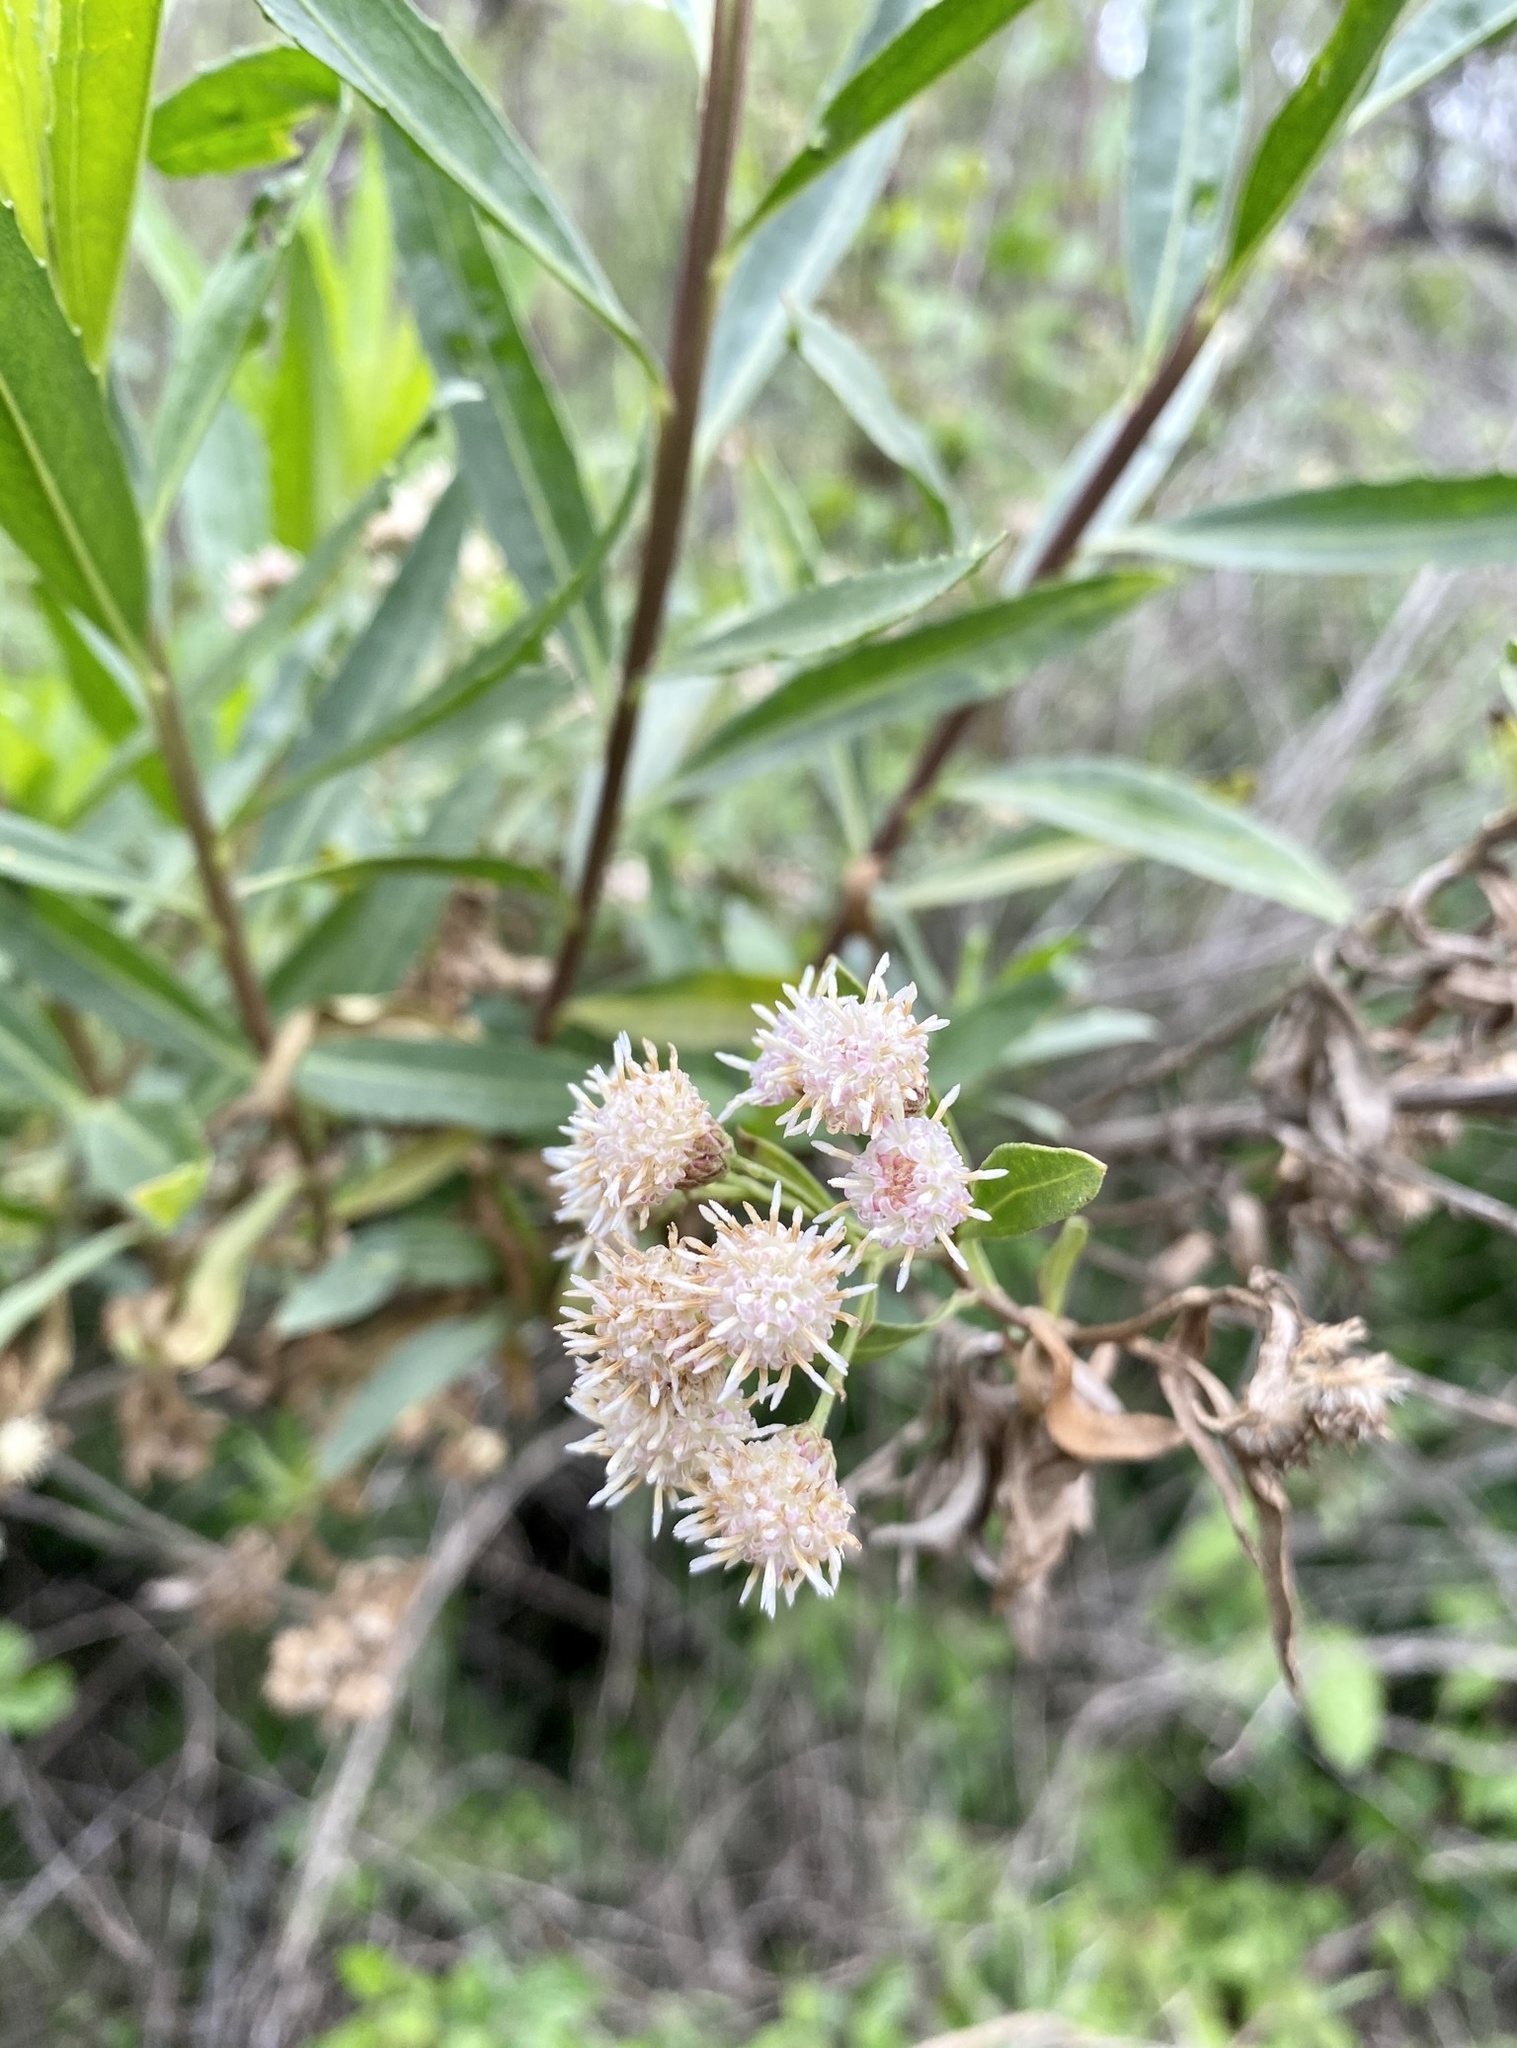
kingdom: Plantae
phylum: Tracheophyta
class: Magnoliopsida
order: Asterales
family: Asteraceae
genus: Baccharis
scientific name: Baccharis salicifolia
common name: Sticky baccharis
